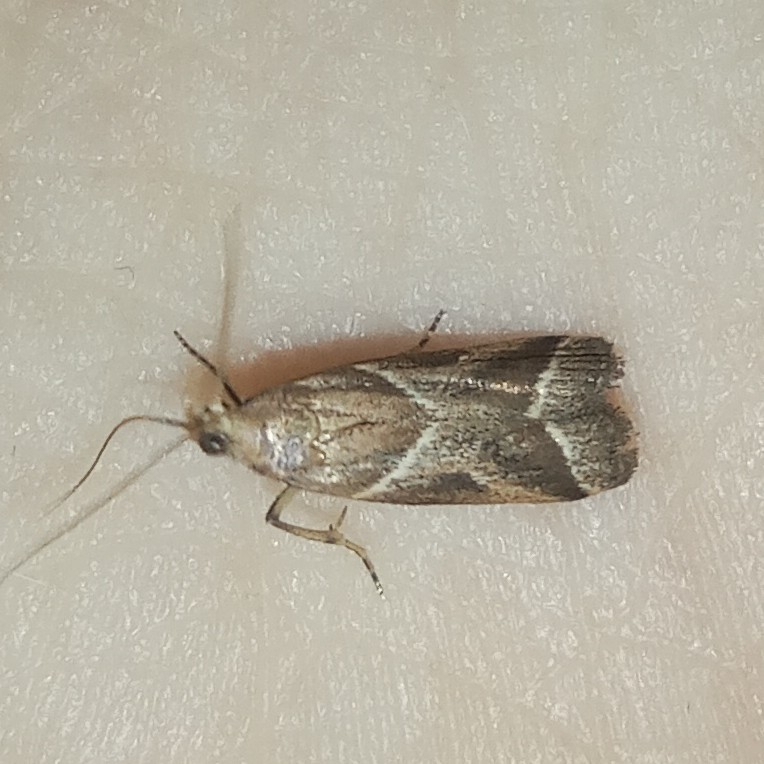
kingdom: Animalia
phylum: Arthropoda
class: Insecta
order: Lepidoptera
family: Pyralidae
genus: Nyctegretis
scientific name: Nyctegretis lineana
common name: Agate knot-horn
